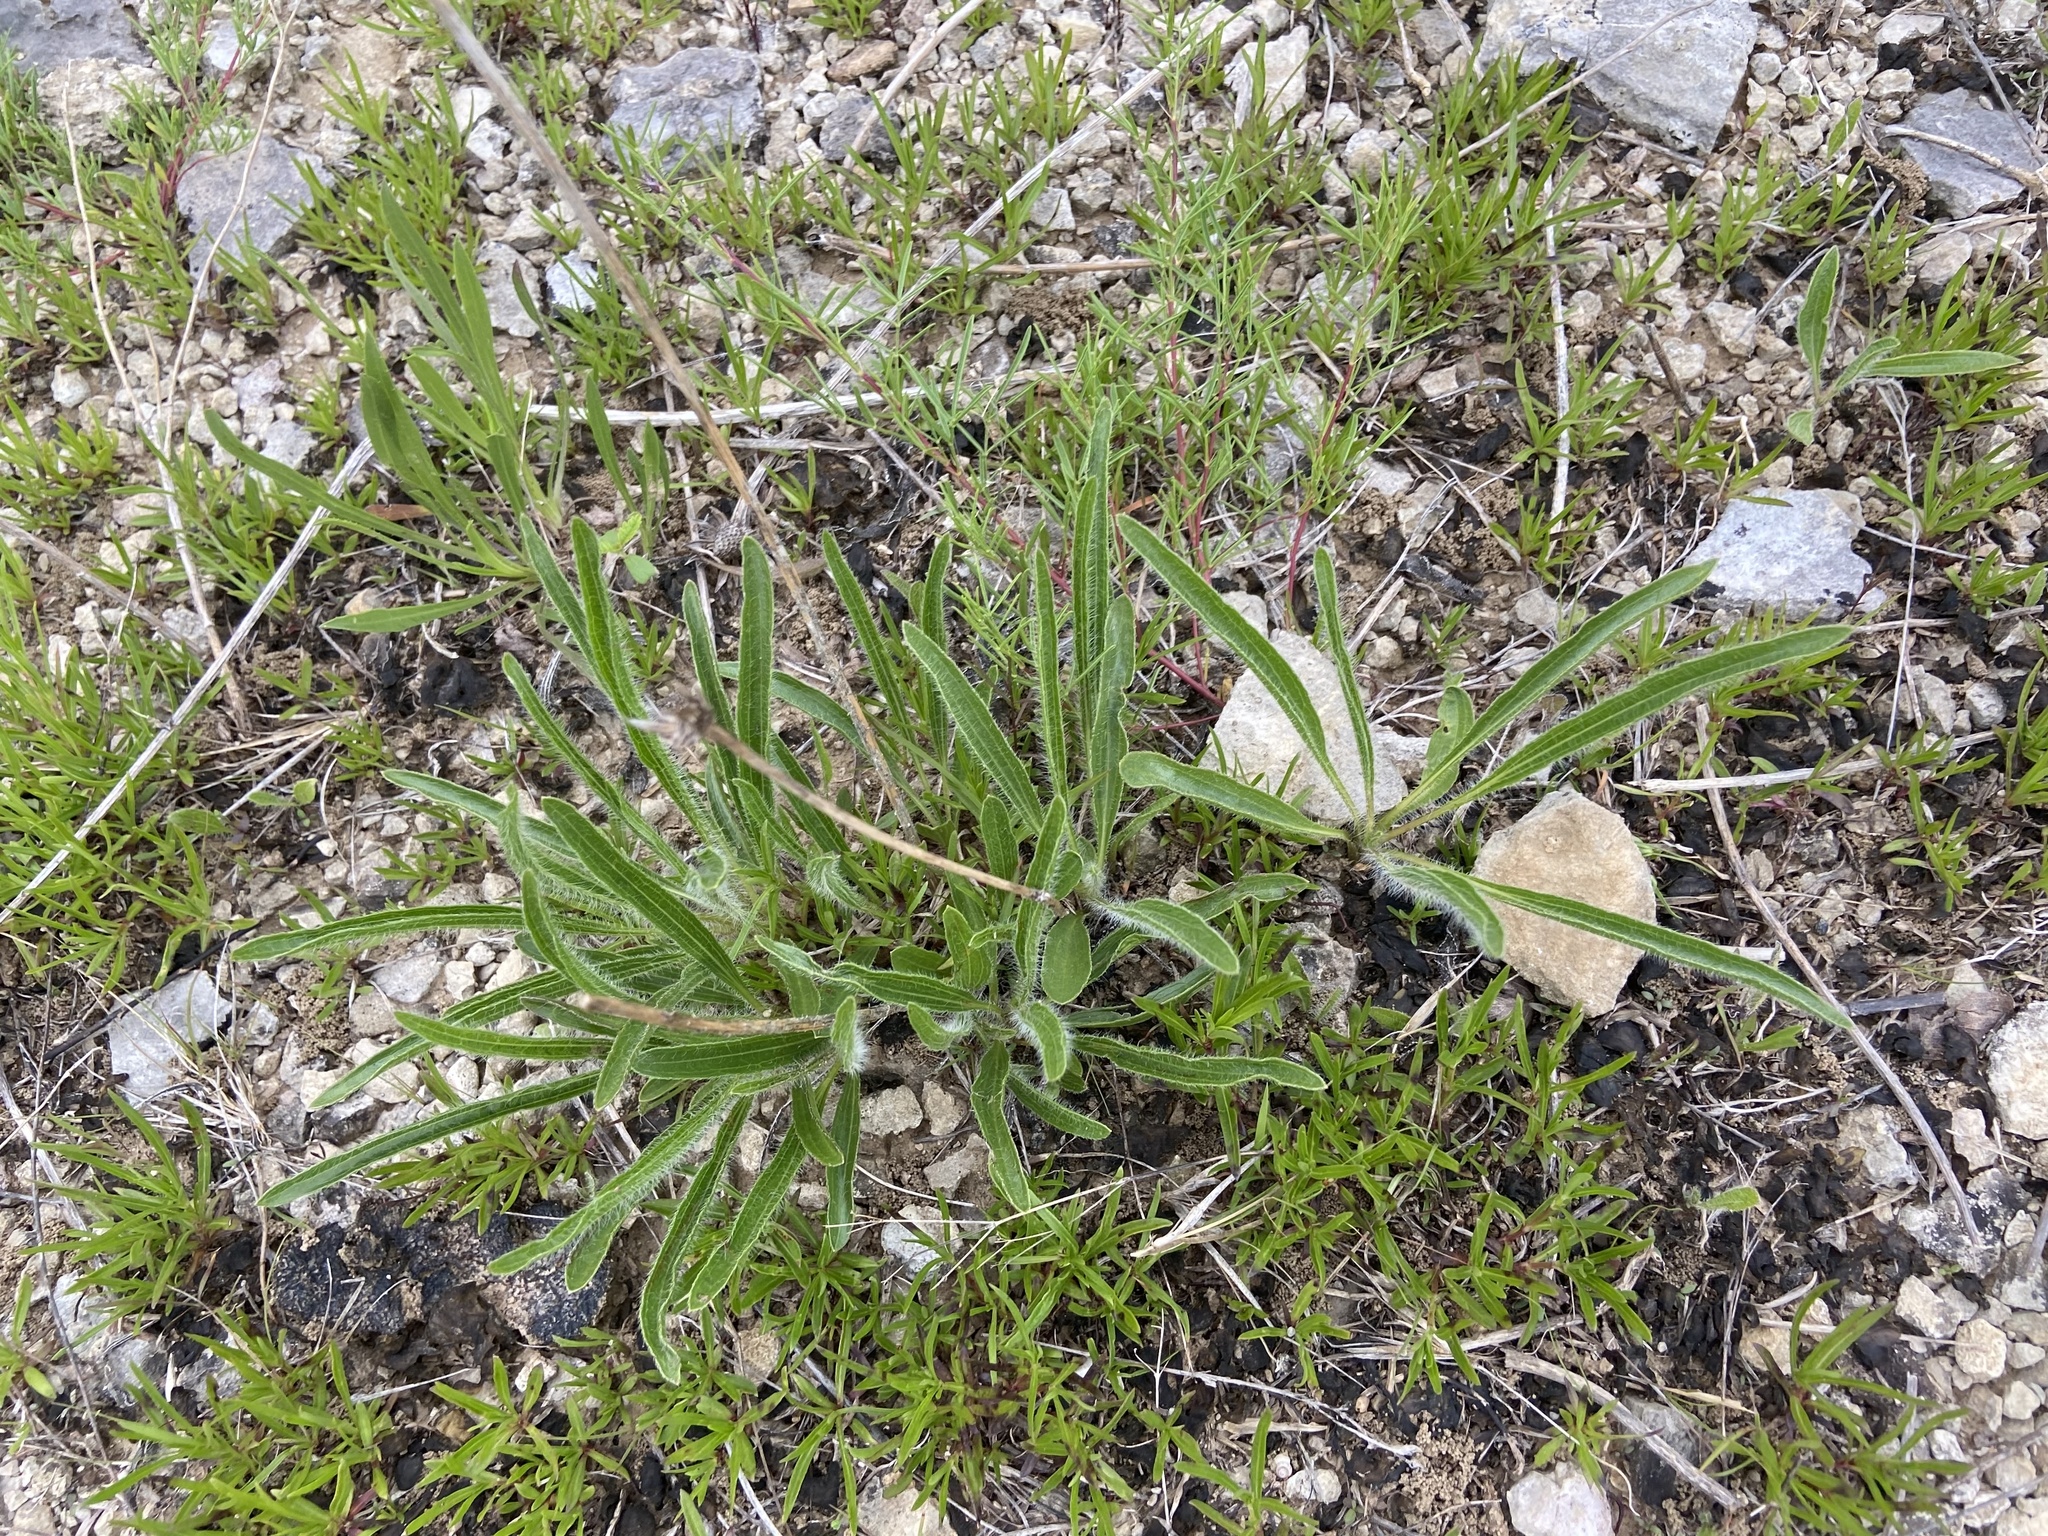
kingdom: Plantae
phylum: Tracheophyta
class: Magnoliopsida
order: Asterales
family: Asteraceae
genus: Echinacea
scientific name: Echinacea tennesseensis
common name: Tennessee purple-coneflower
